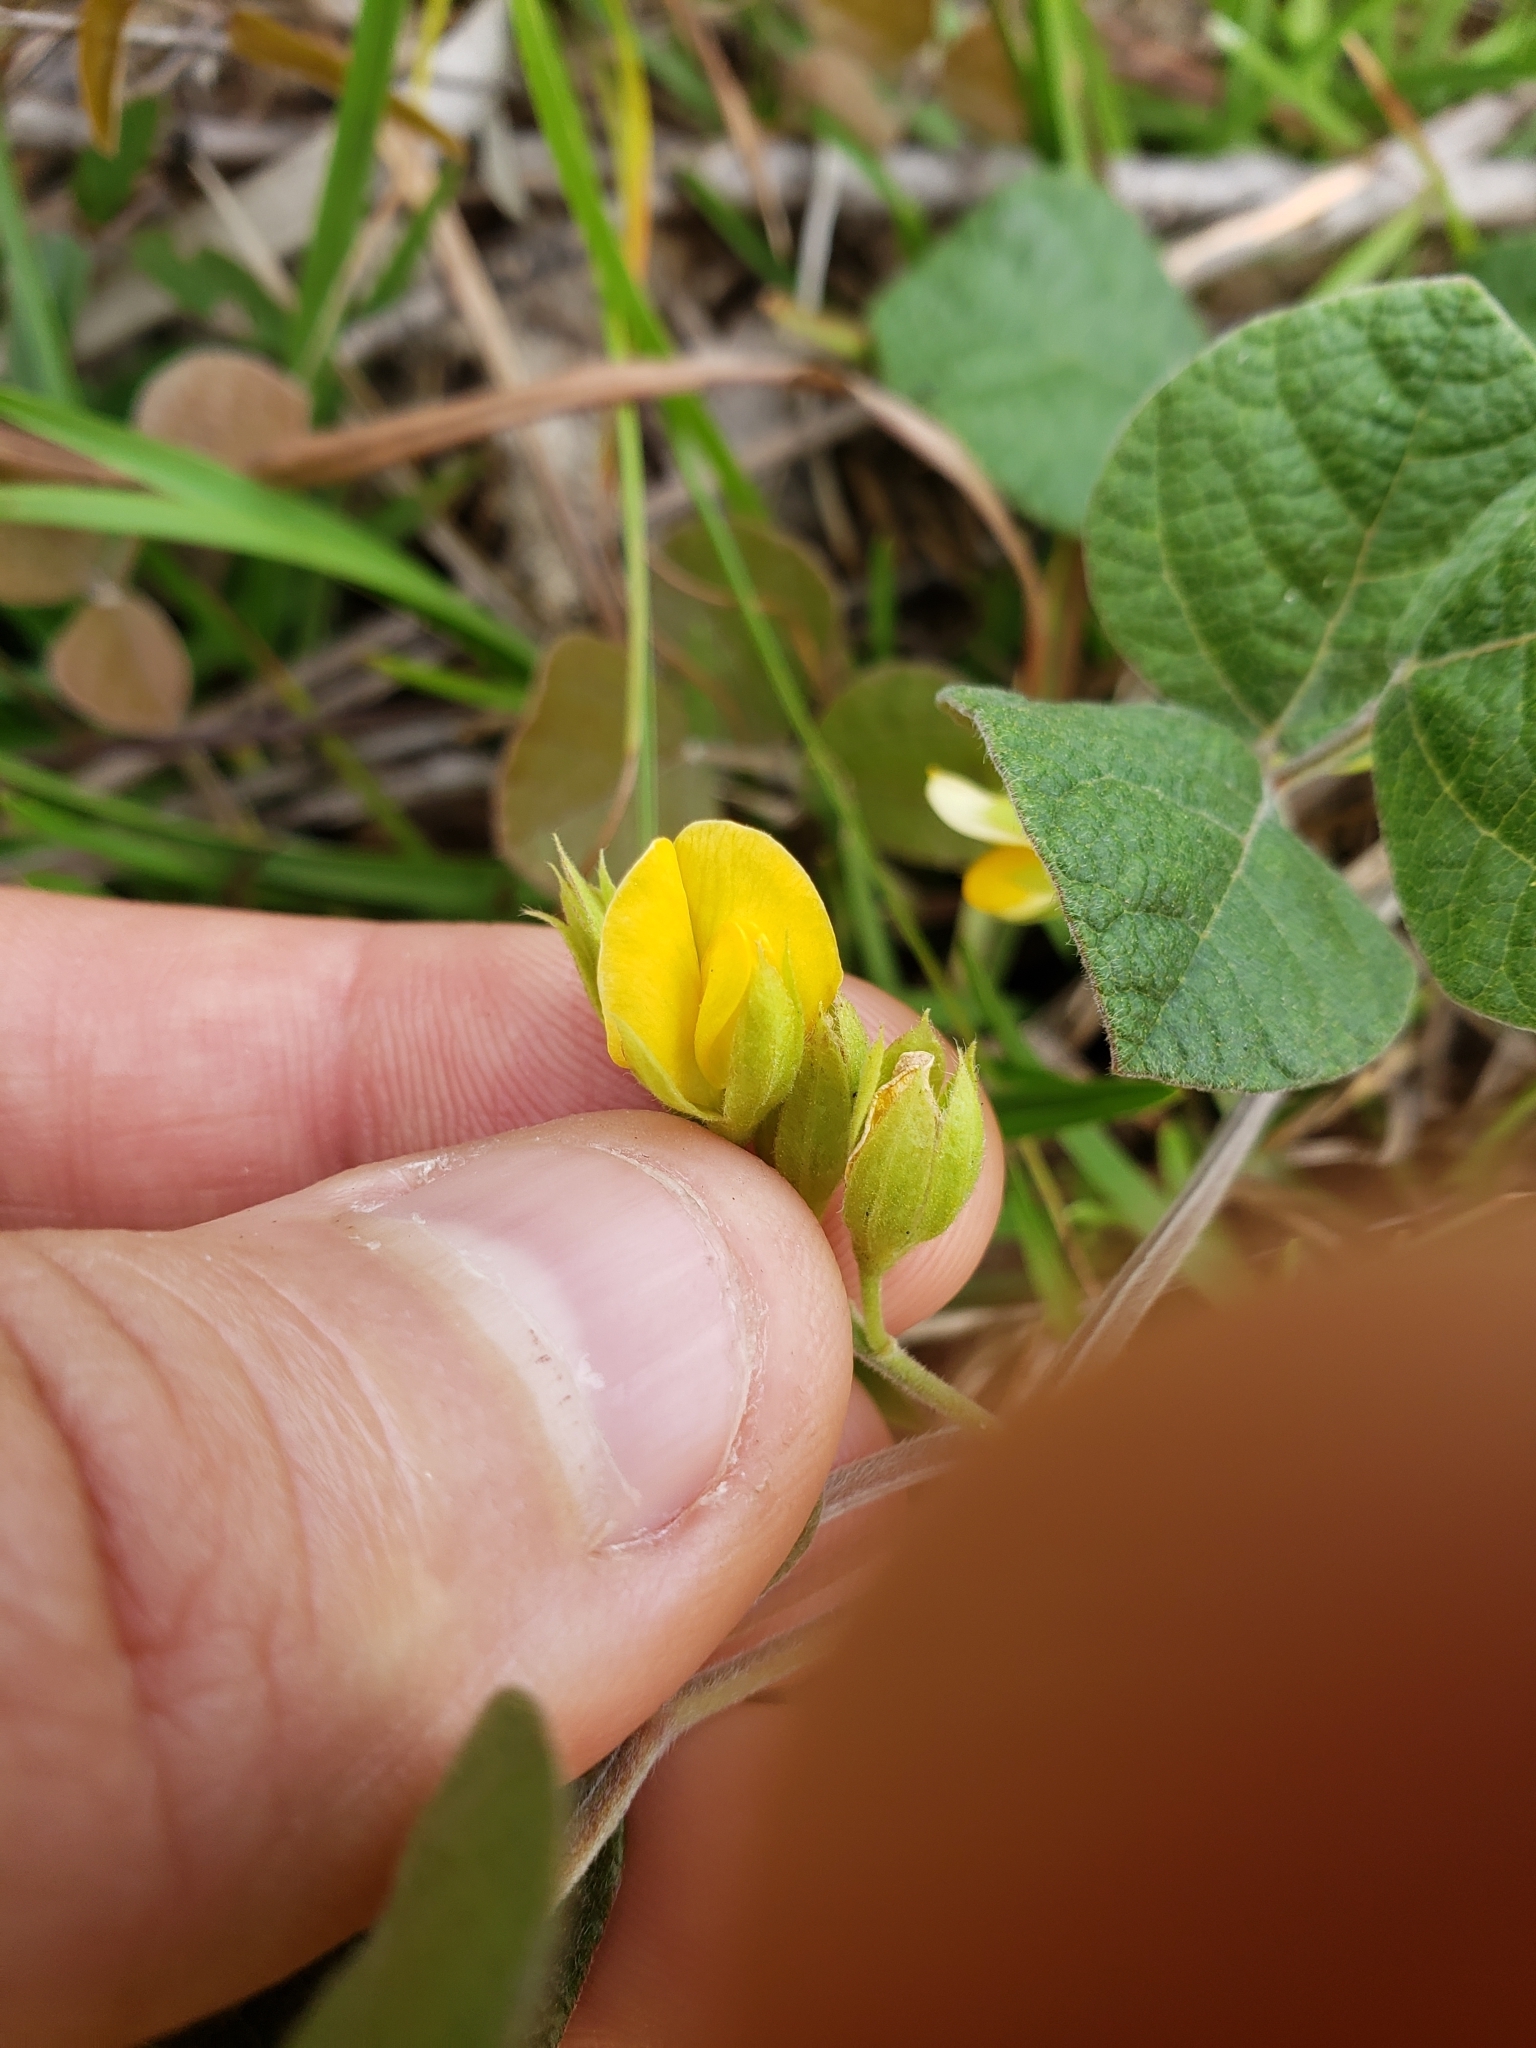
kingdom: Plantae
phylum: Tracheophyta
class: Magnoliopsida
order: Fabales
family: Fabaceae
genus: Rhynchosia
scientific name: Rhynchosia difformis
